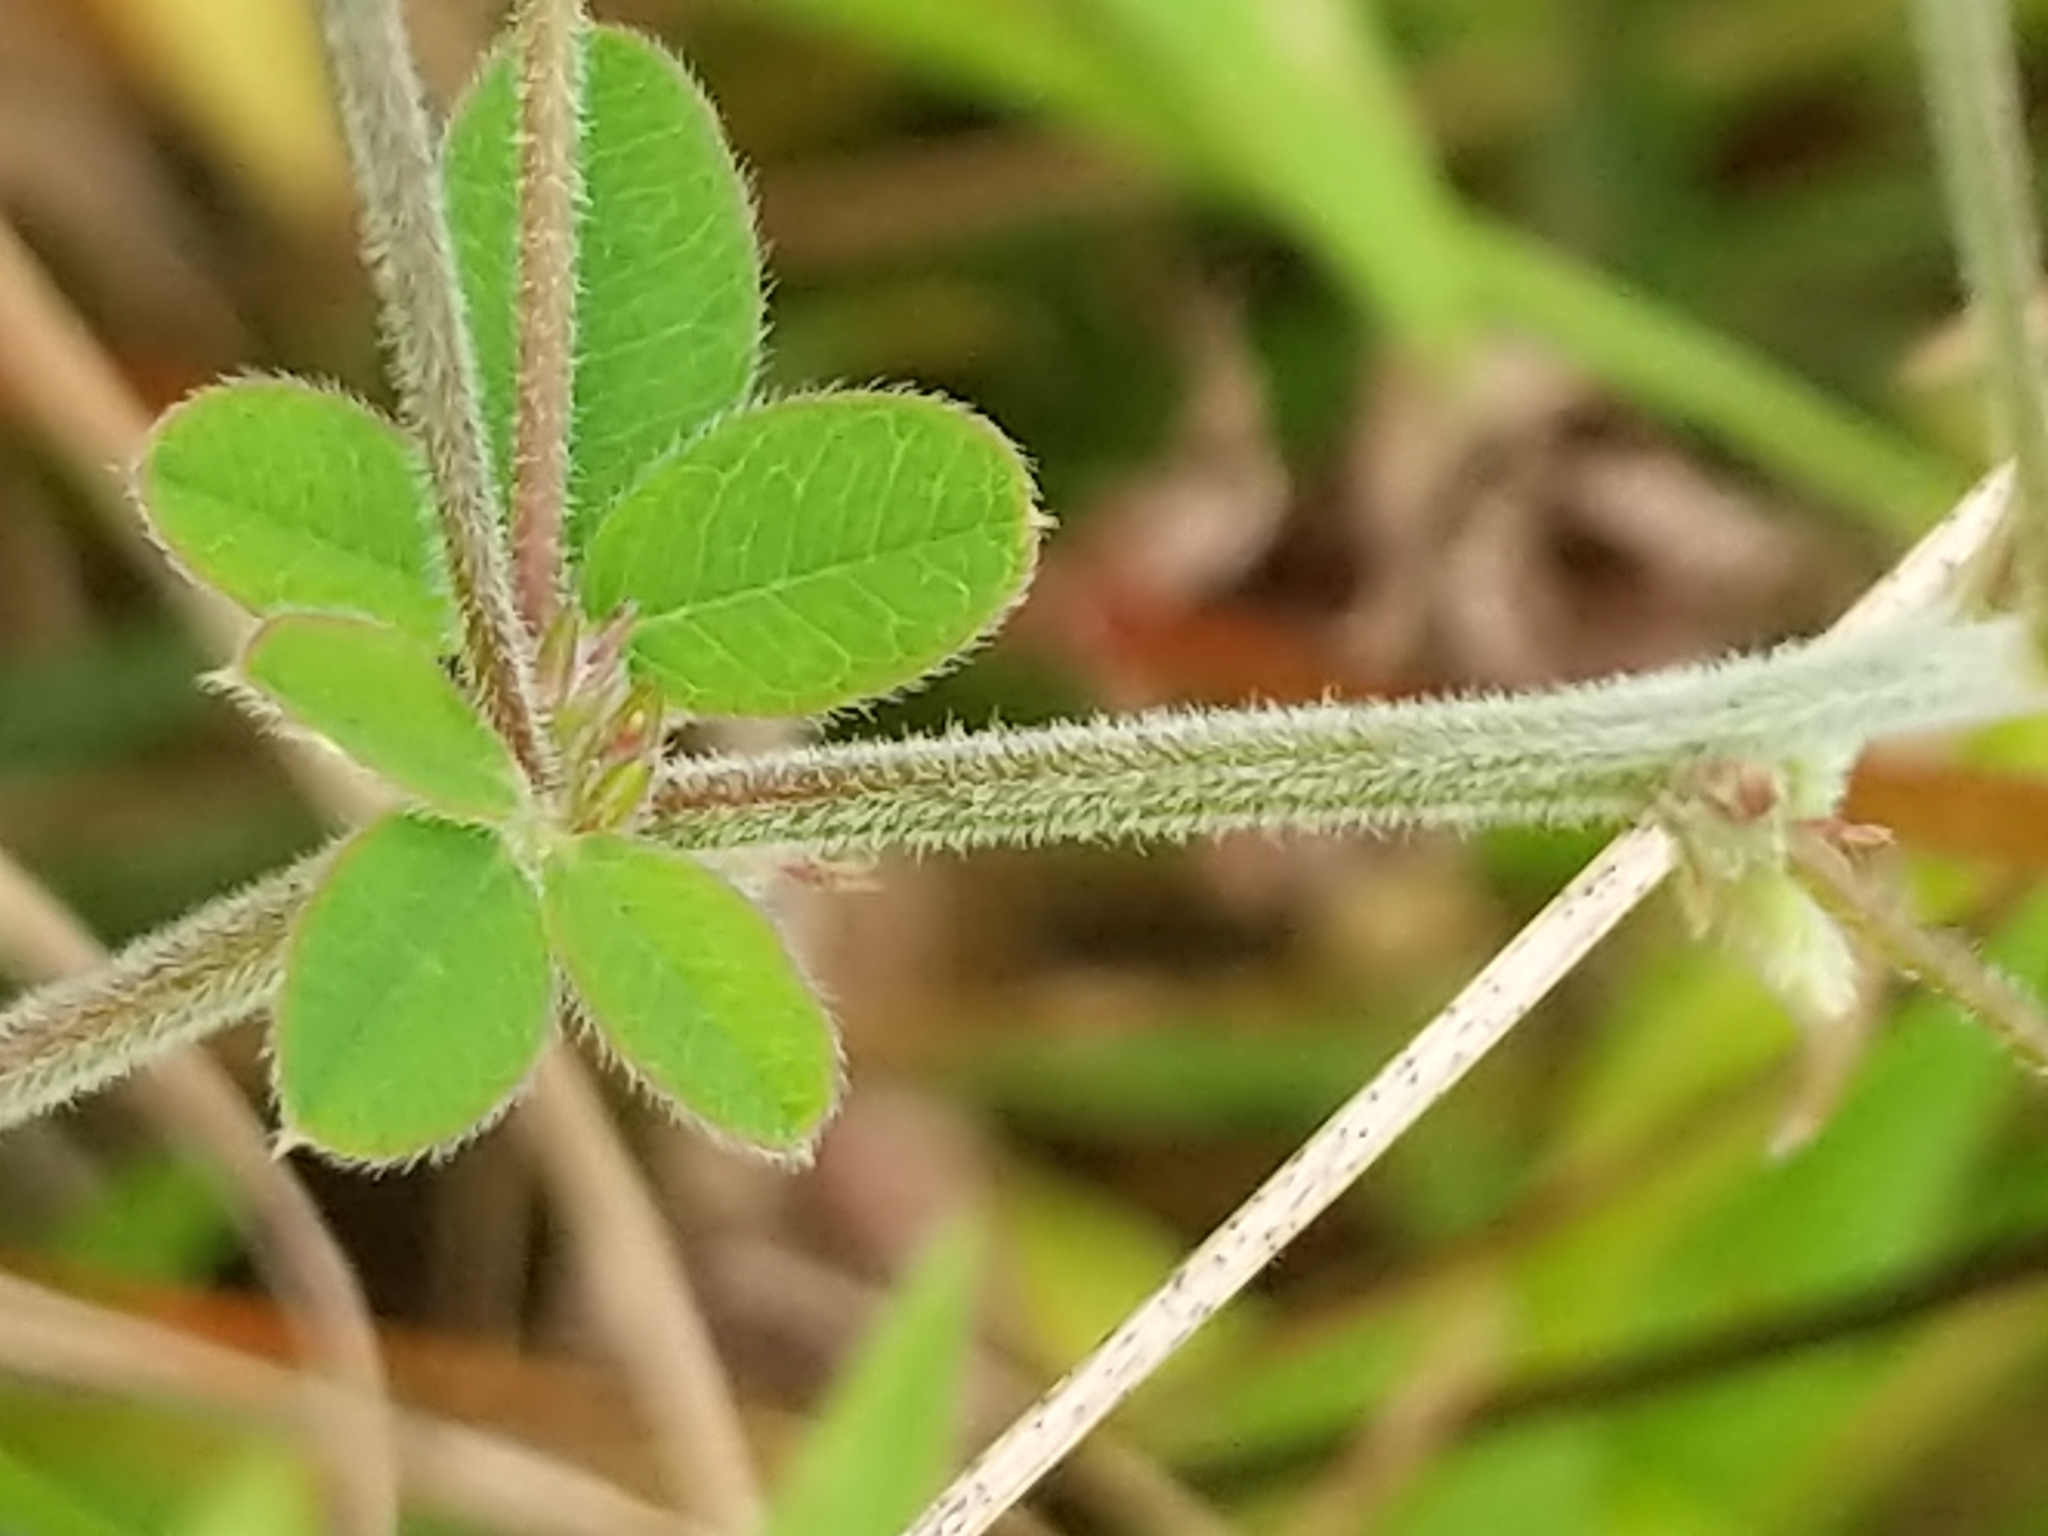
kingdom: Plantae
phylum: Tracheophyta
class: Magnoliopsida
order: Fabales
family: Fabaceae
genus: Lespedeza
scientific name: Lespedeza procumbens
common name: Downy trailing bush-clover
